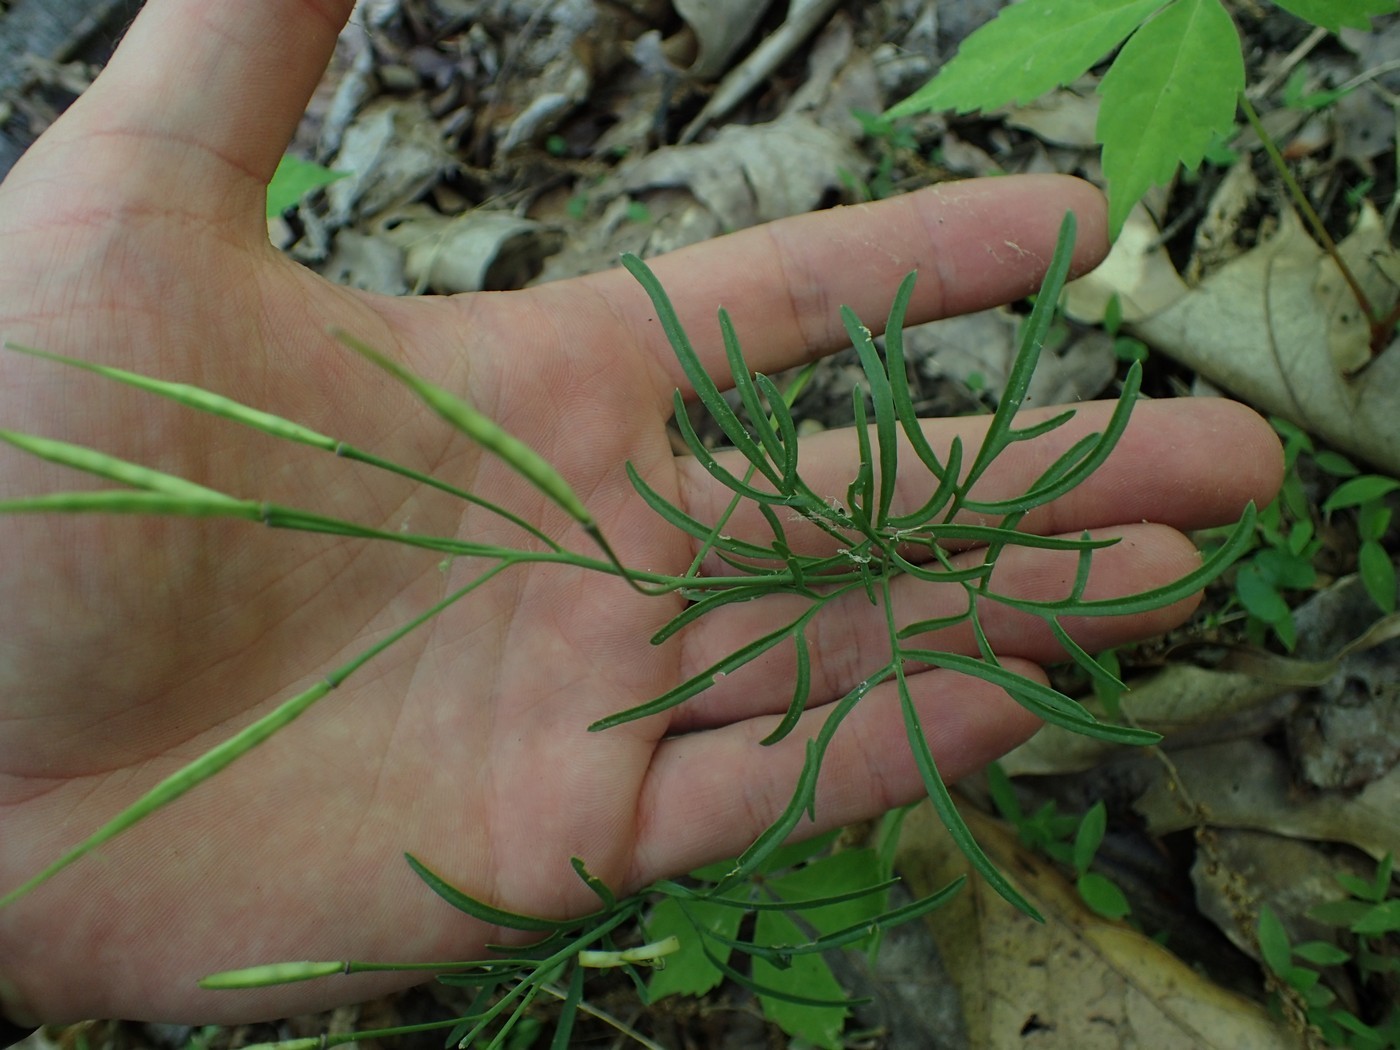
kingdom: Plantae
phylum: Tracheophyta
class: Magnoliopsida
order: Brassicales
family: Brassicaceae
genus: Cardamine
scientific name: Cardamine dissecta
